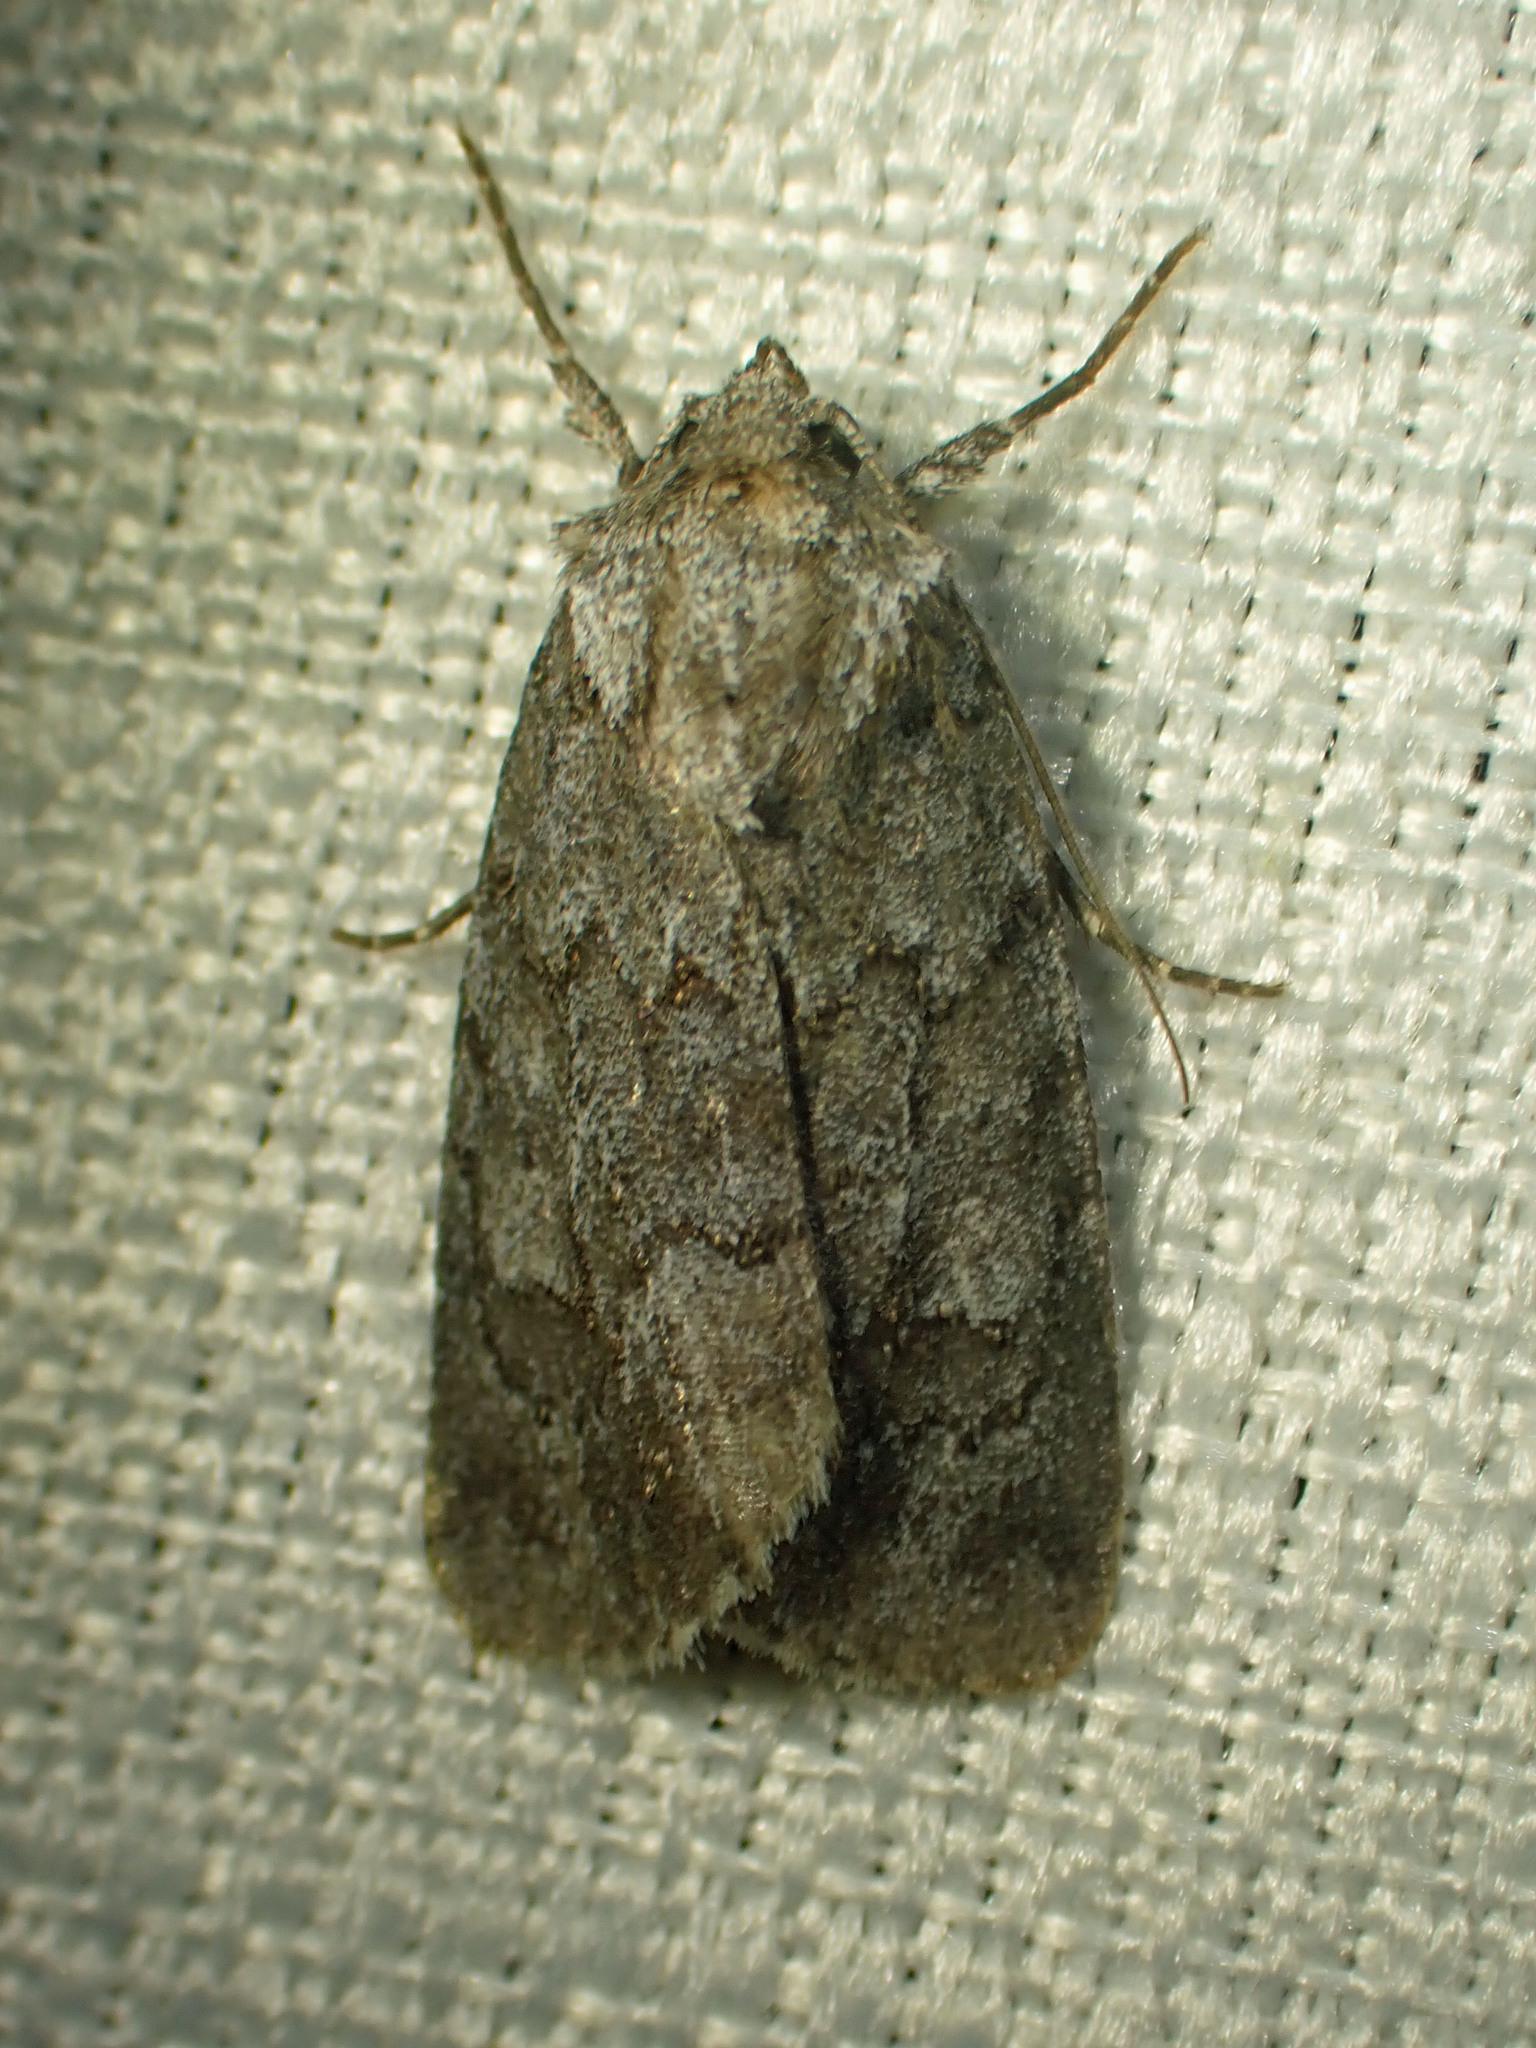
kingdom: Animalia
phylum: Arthropoda
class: Insecta
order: Lepidoptera
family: Noctuidae
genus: Sympistis
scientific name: Sympistis dentata
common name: Blueberry sallow
